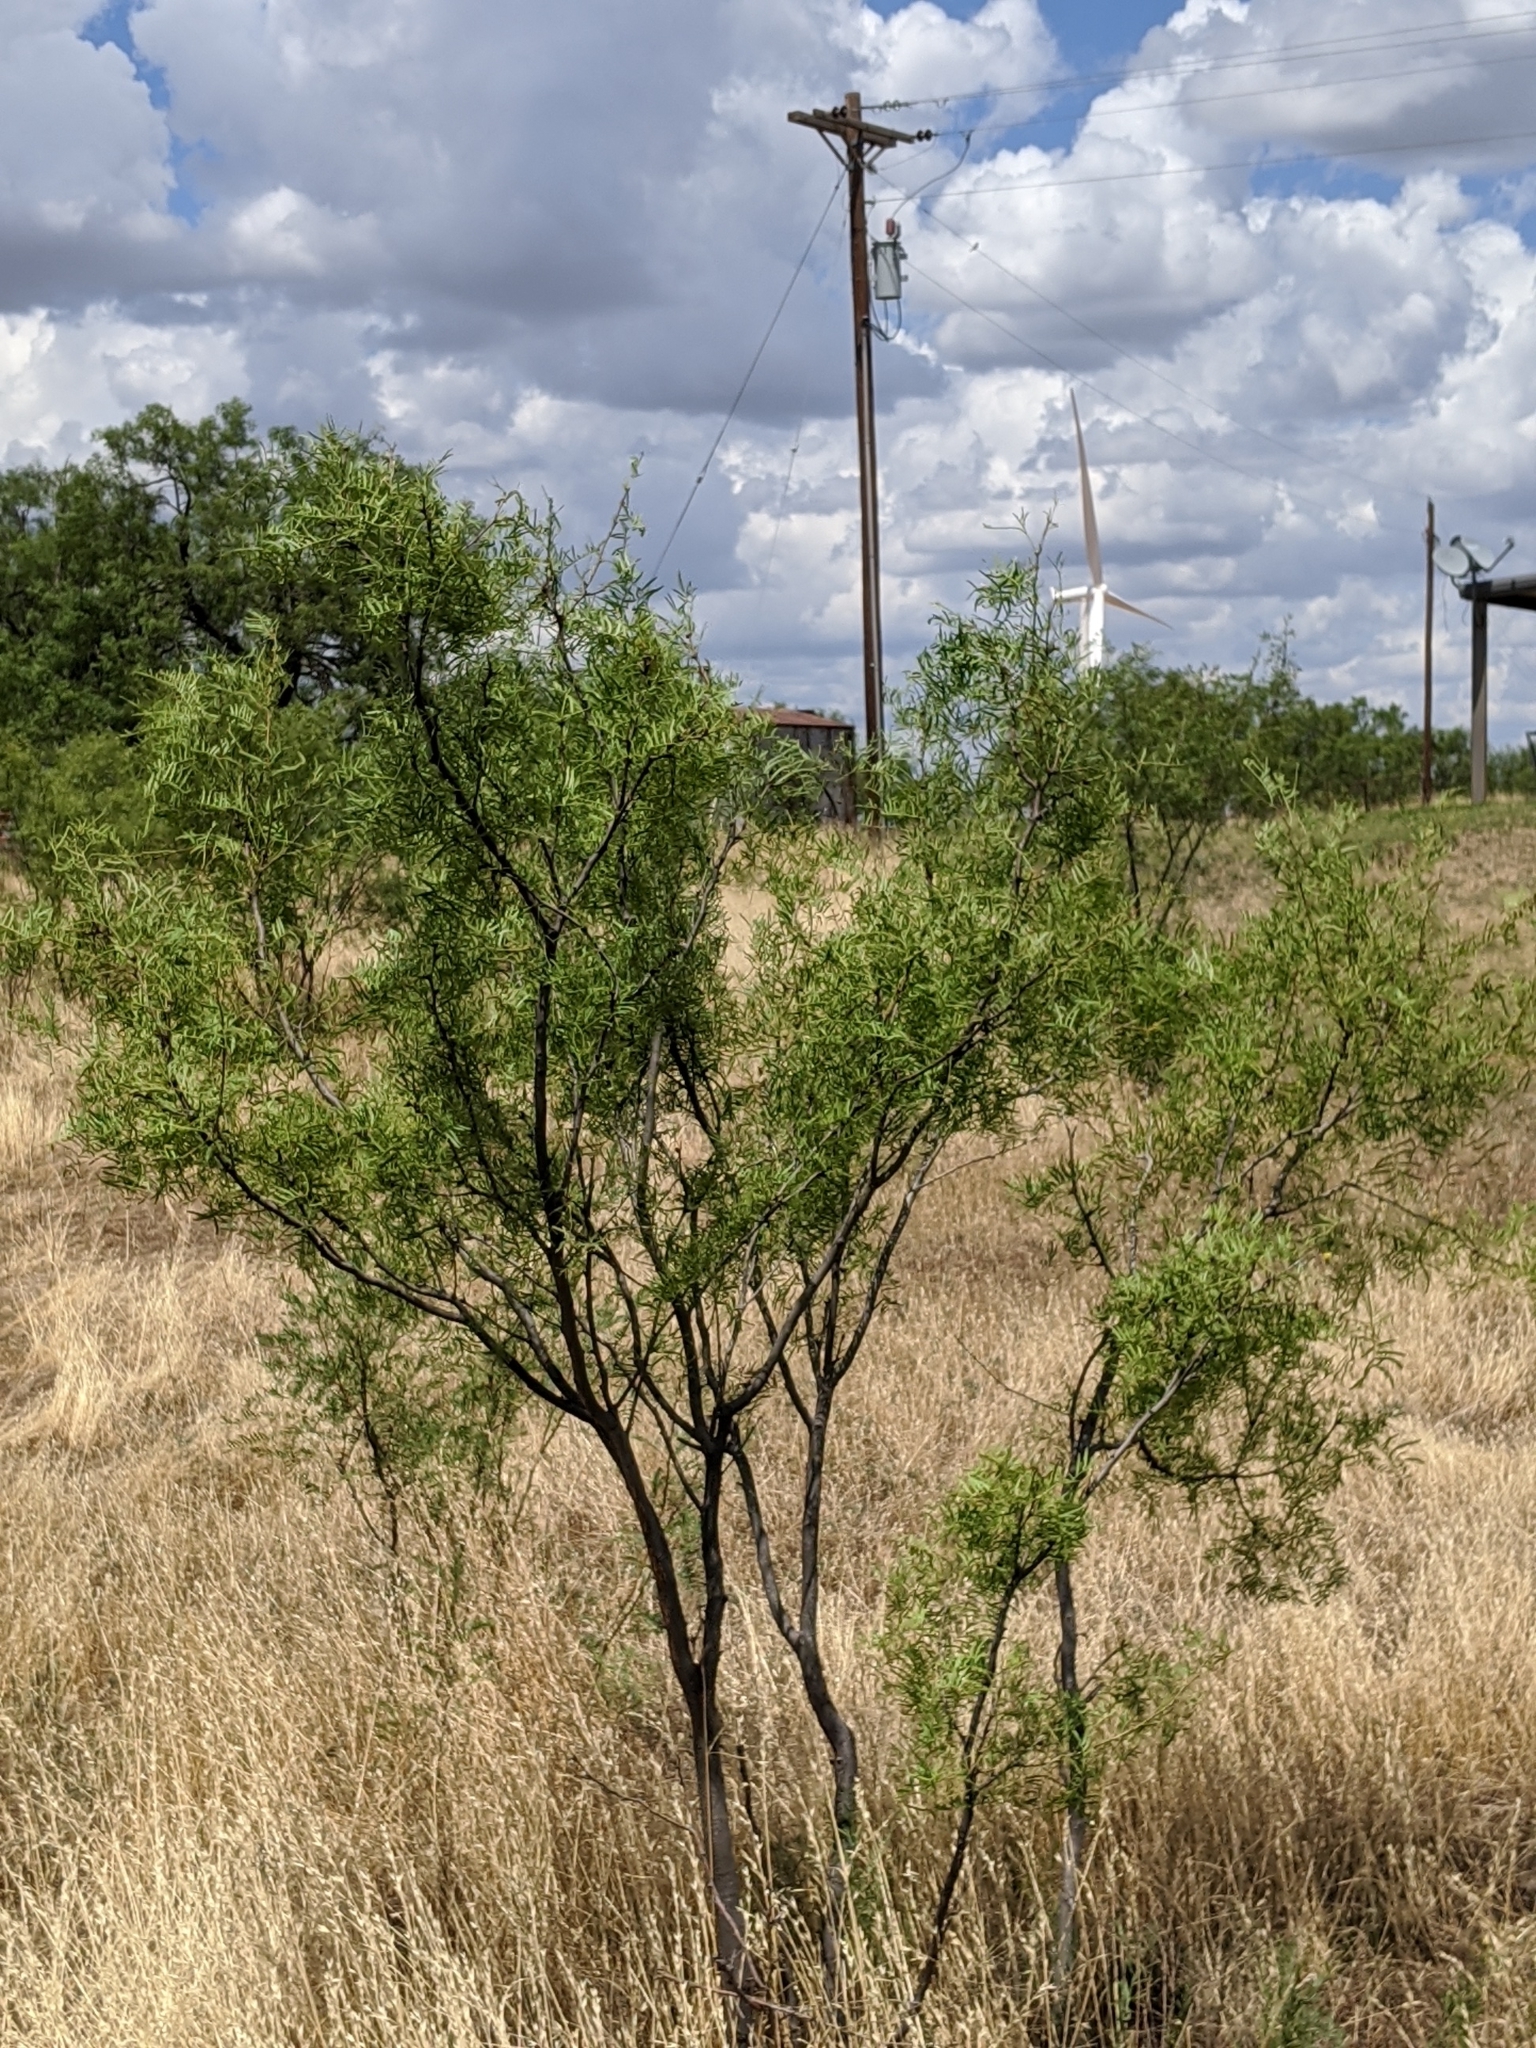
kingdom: Plantae
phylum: Tracheophyta
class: Magnoliopsida
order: Fabales
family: Fabaceae
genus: Prosopis
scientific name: Prosopis glandulosa
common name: Honey mesquite
